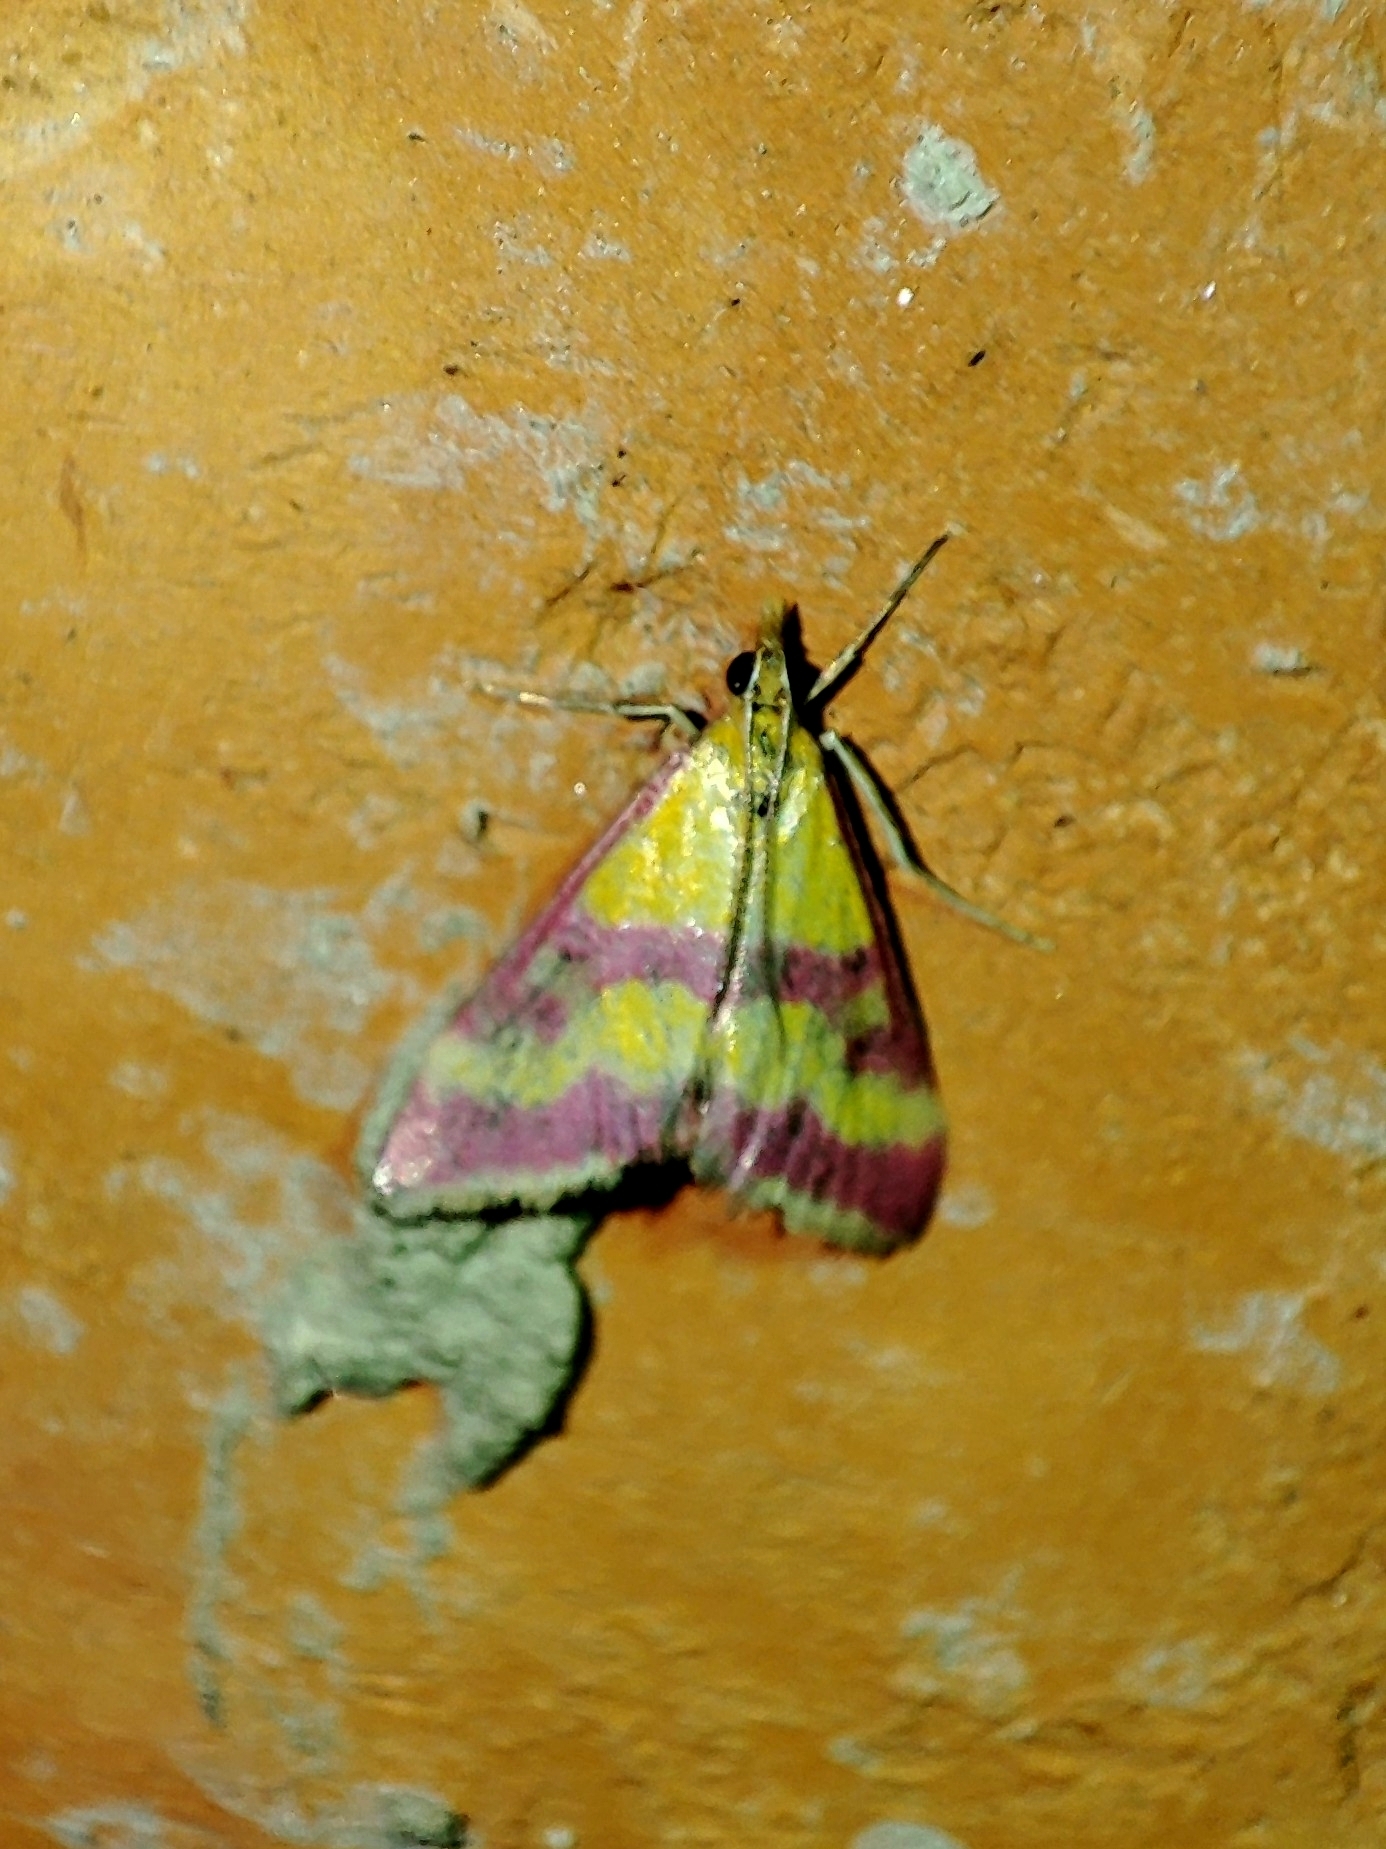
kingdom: Animalia
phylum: Arthropoda
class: Insecta
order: Lepidoptera
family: Crambidae
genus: Pyrausta
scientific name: Pyrausta sanguinalis
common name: Scarce crimson and gold
